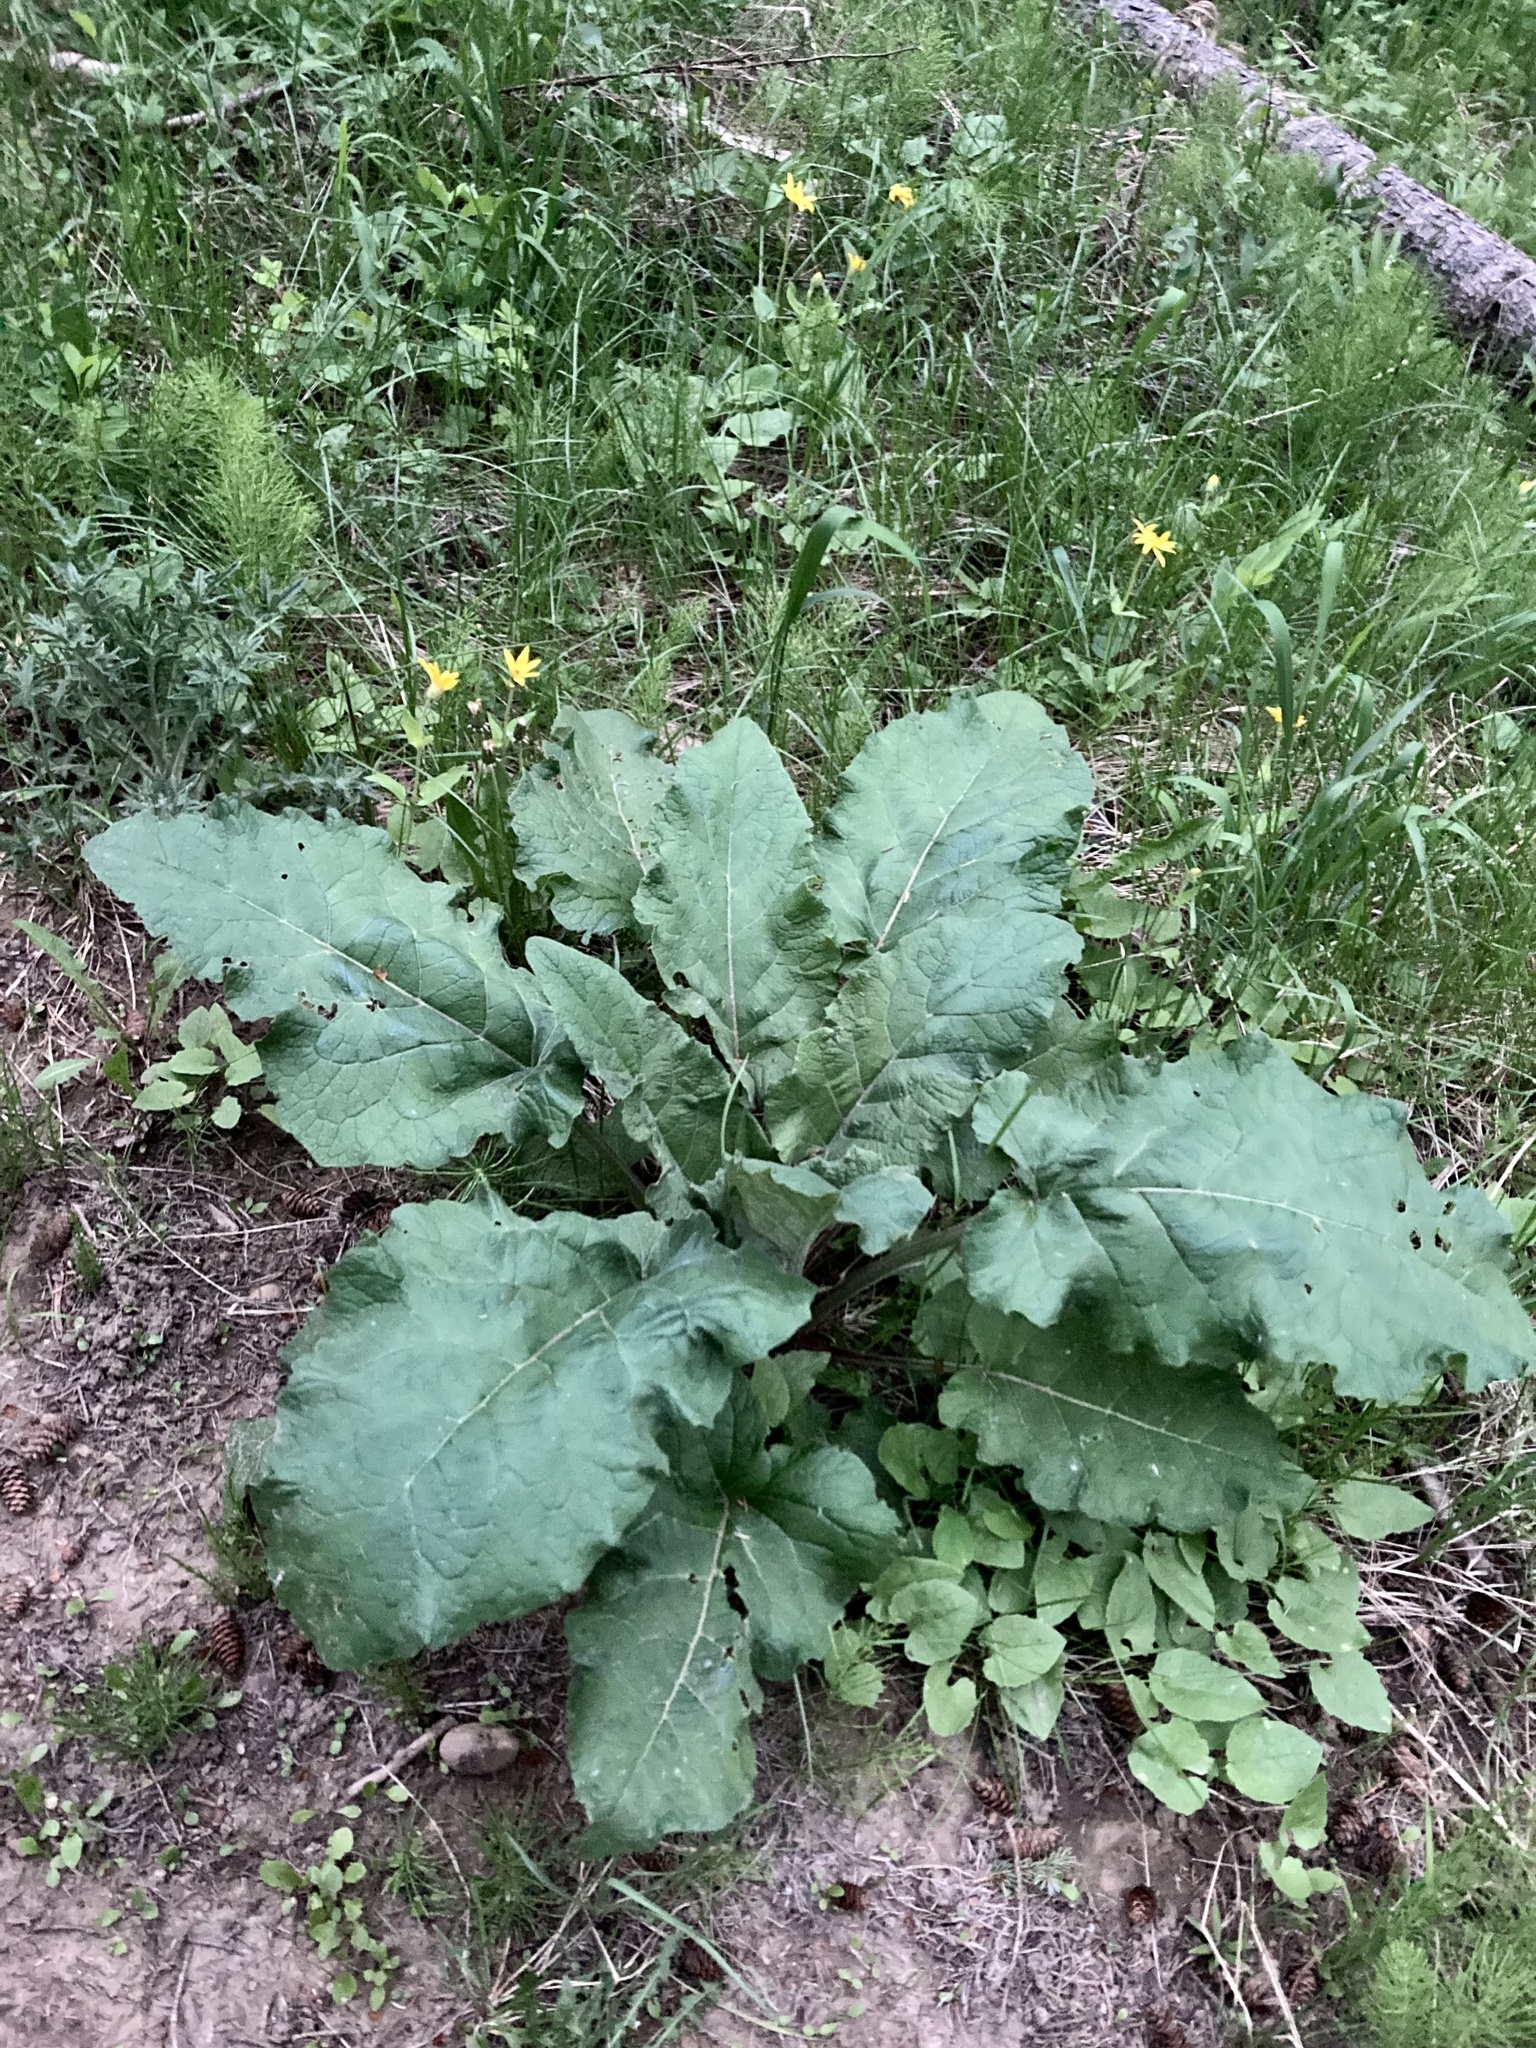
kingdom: Plantae
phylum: Tracheophyta
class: Magnoliopsida
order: Asterales
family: Asteraceae
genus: Arctium
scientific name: Arctium
